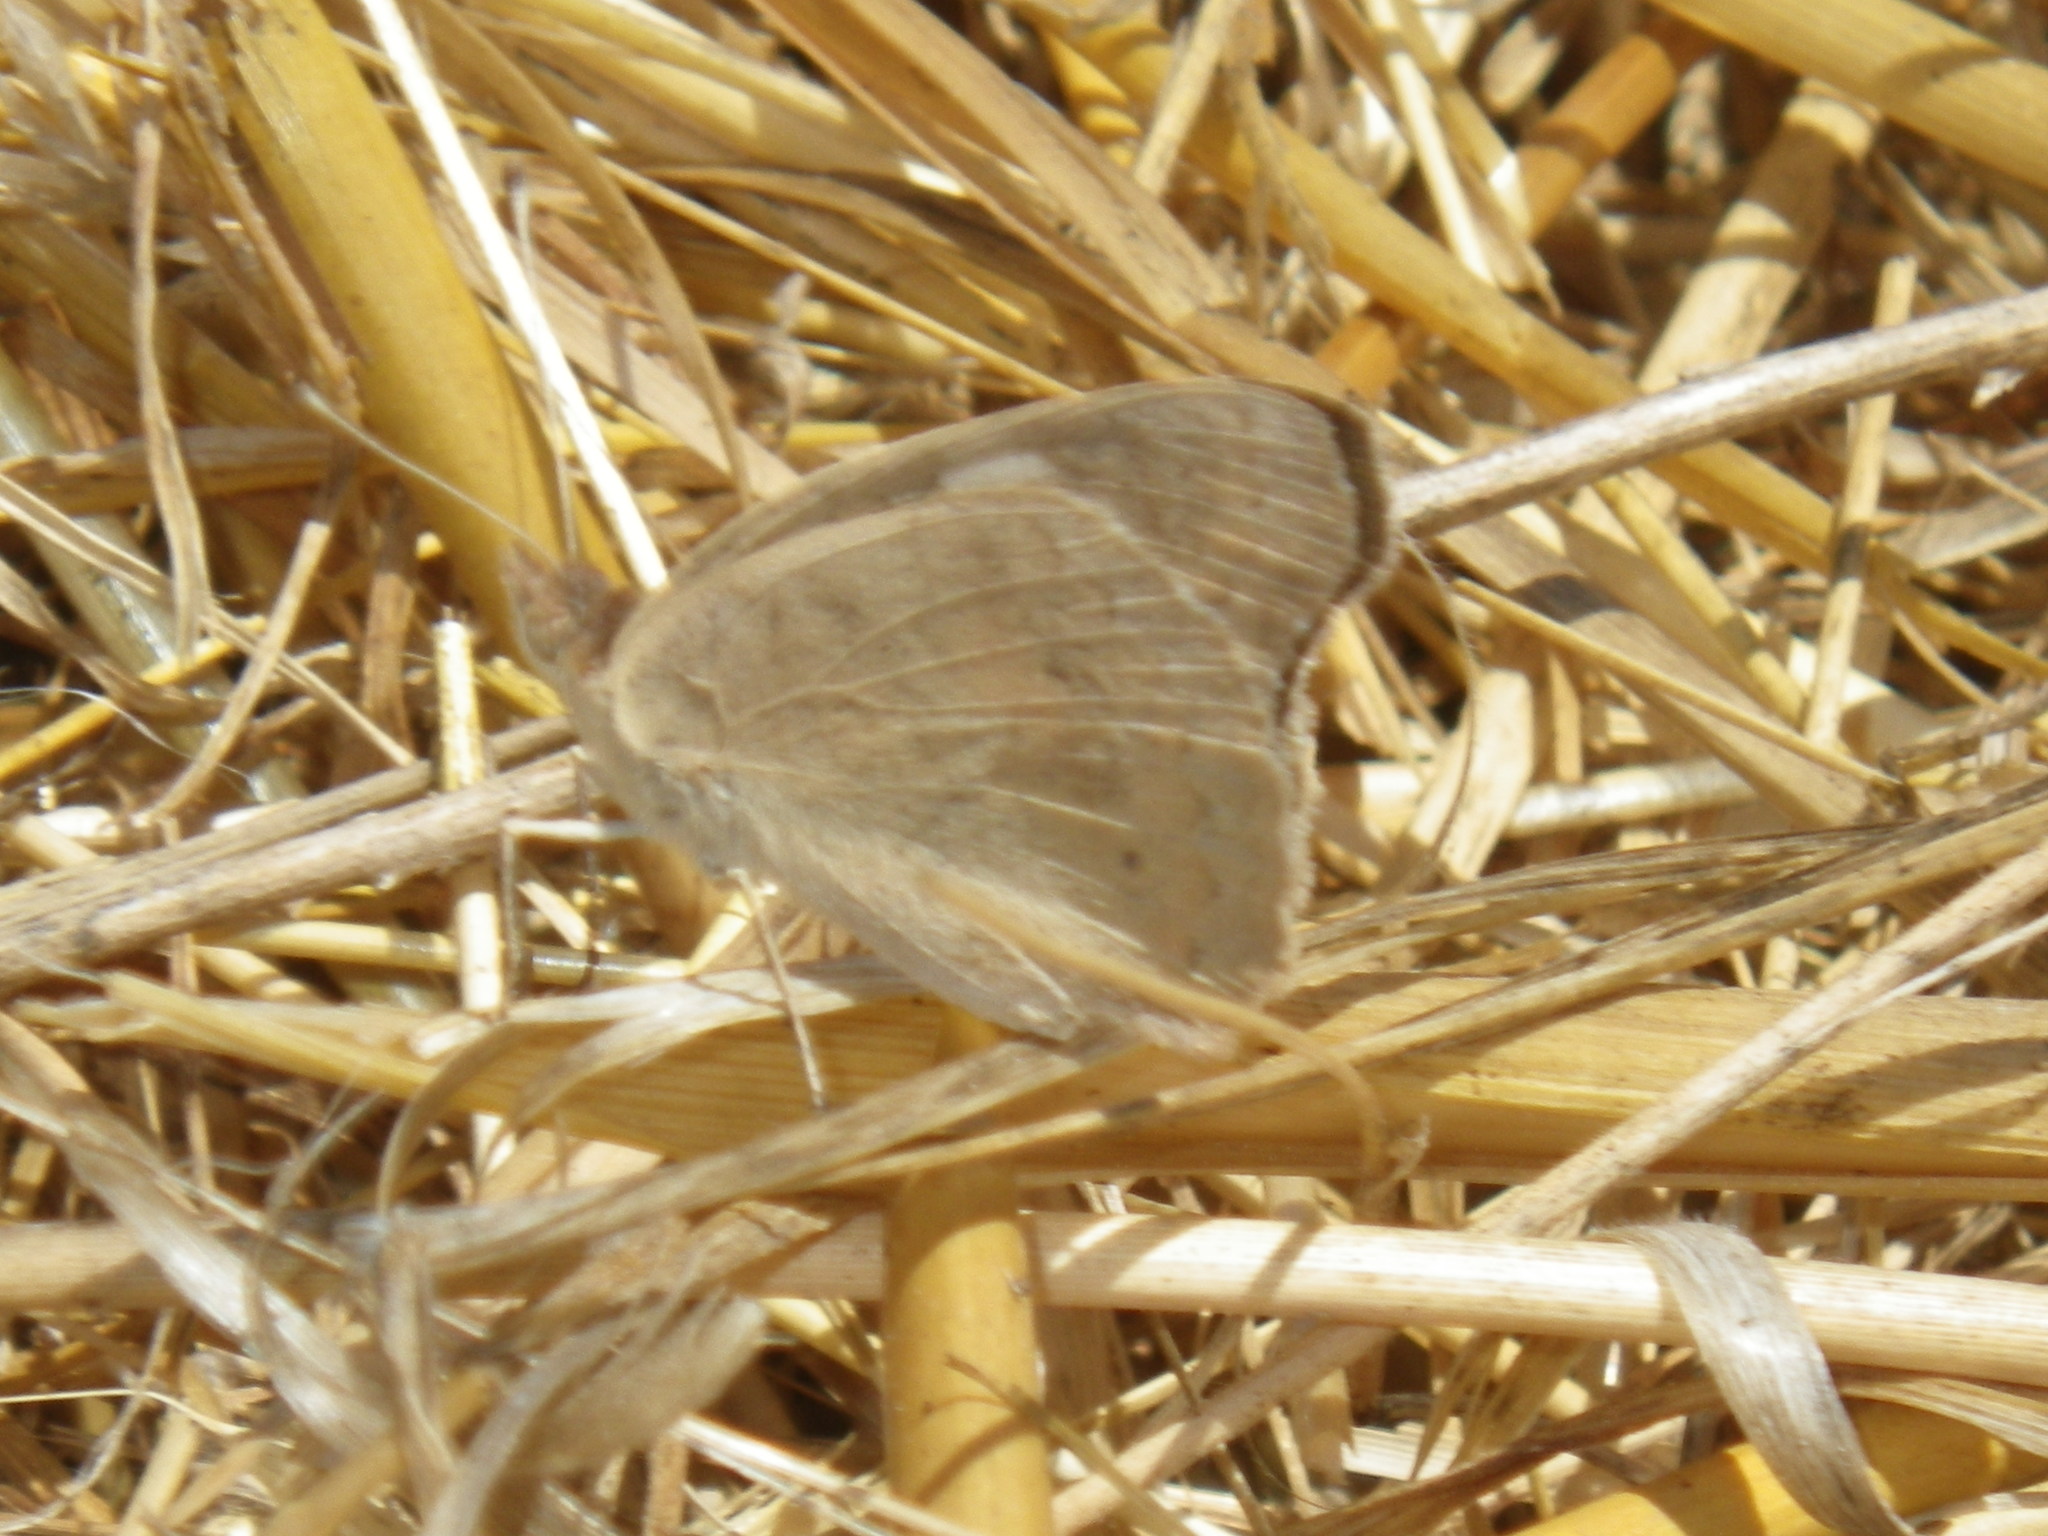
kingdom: Animalia
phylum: Arthropoda
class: Insecta
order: Lepidoptera
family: Nymphalidae
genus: Junonia
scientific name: Junonia grisea
